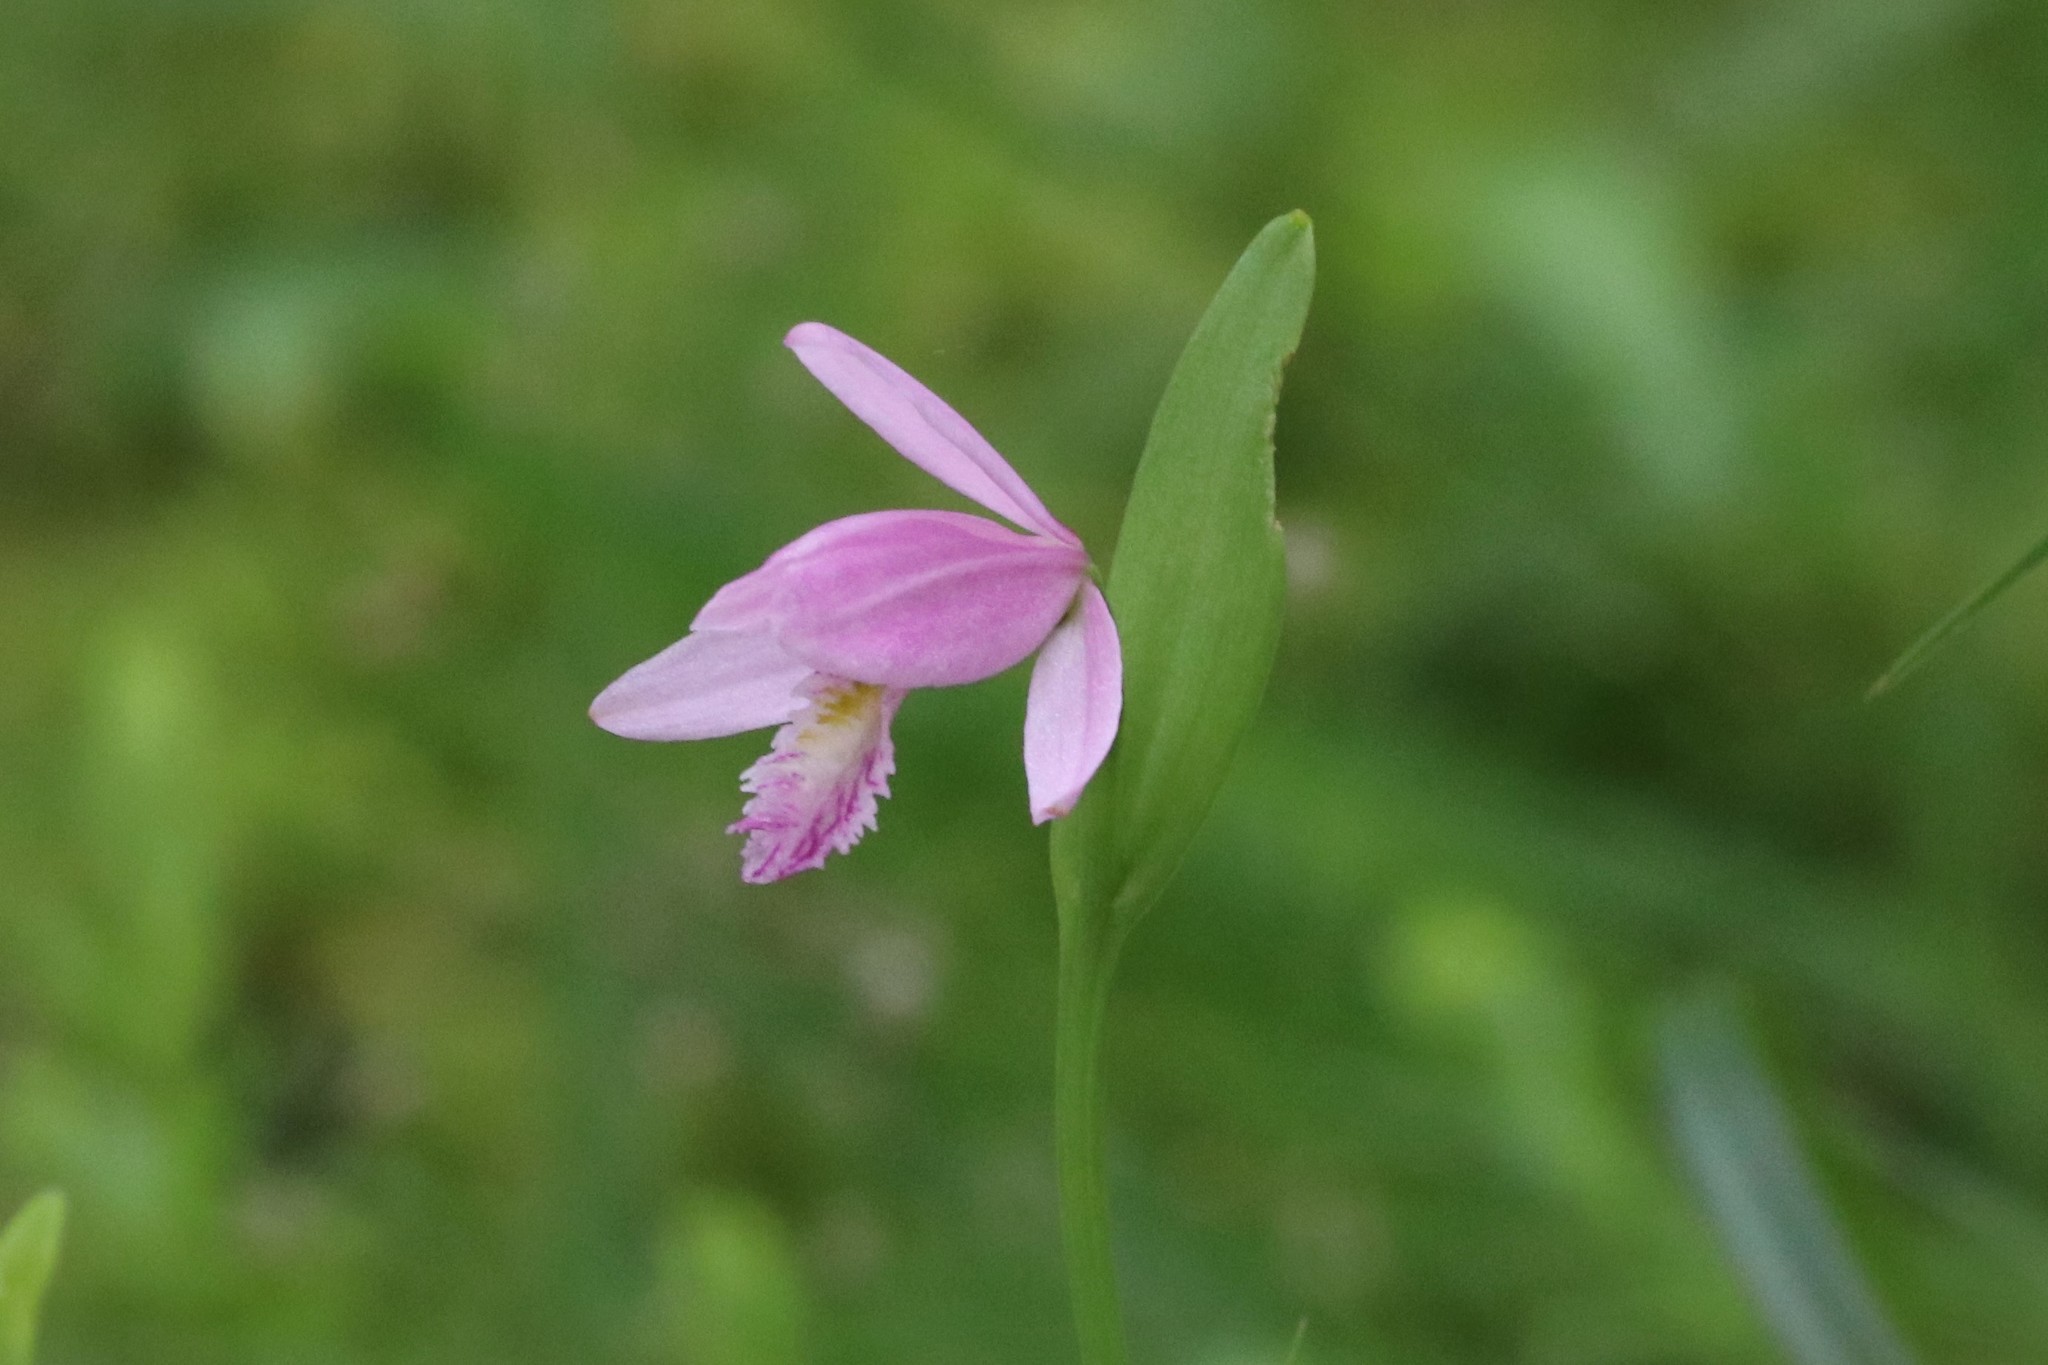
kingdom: Plantae
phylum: Tracheophyta
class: Liliopsida
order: Asparagales
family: Orchidaceae
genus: Pogonia
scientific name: Pogonia ophioglossoides
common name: Rose pogonia
